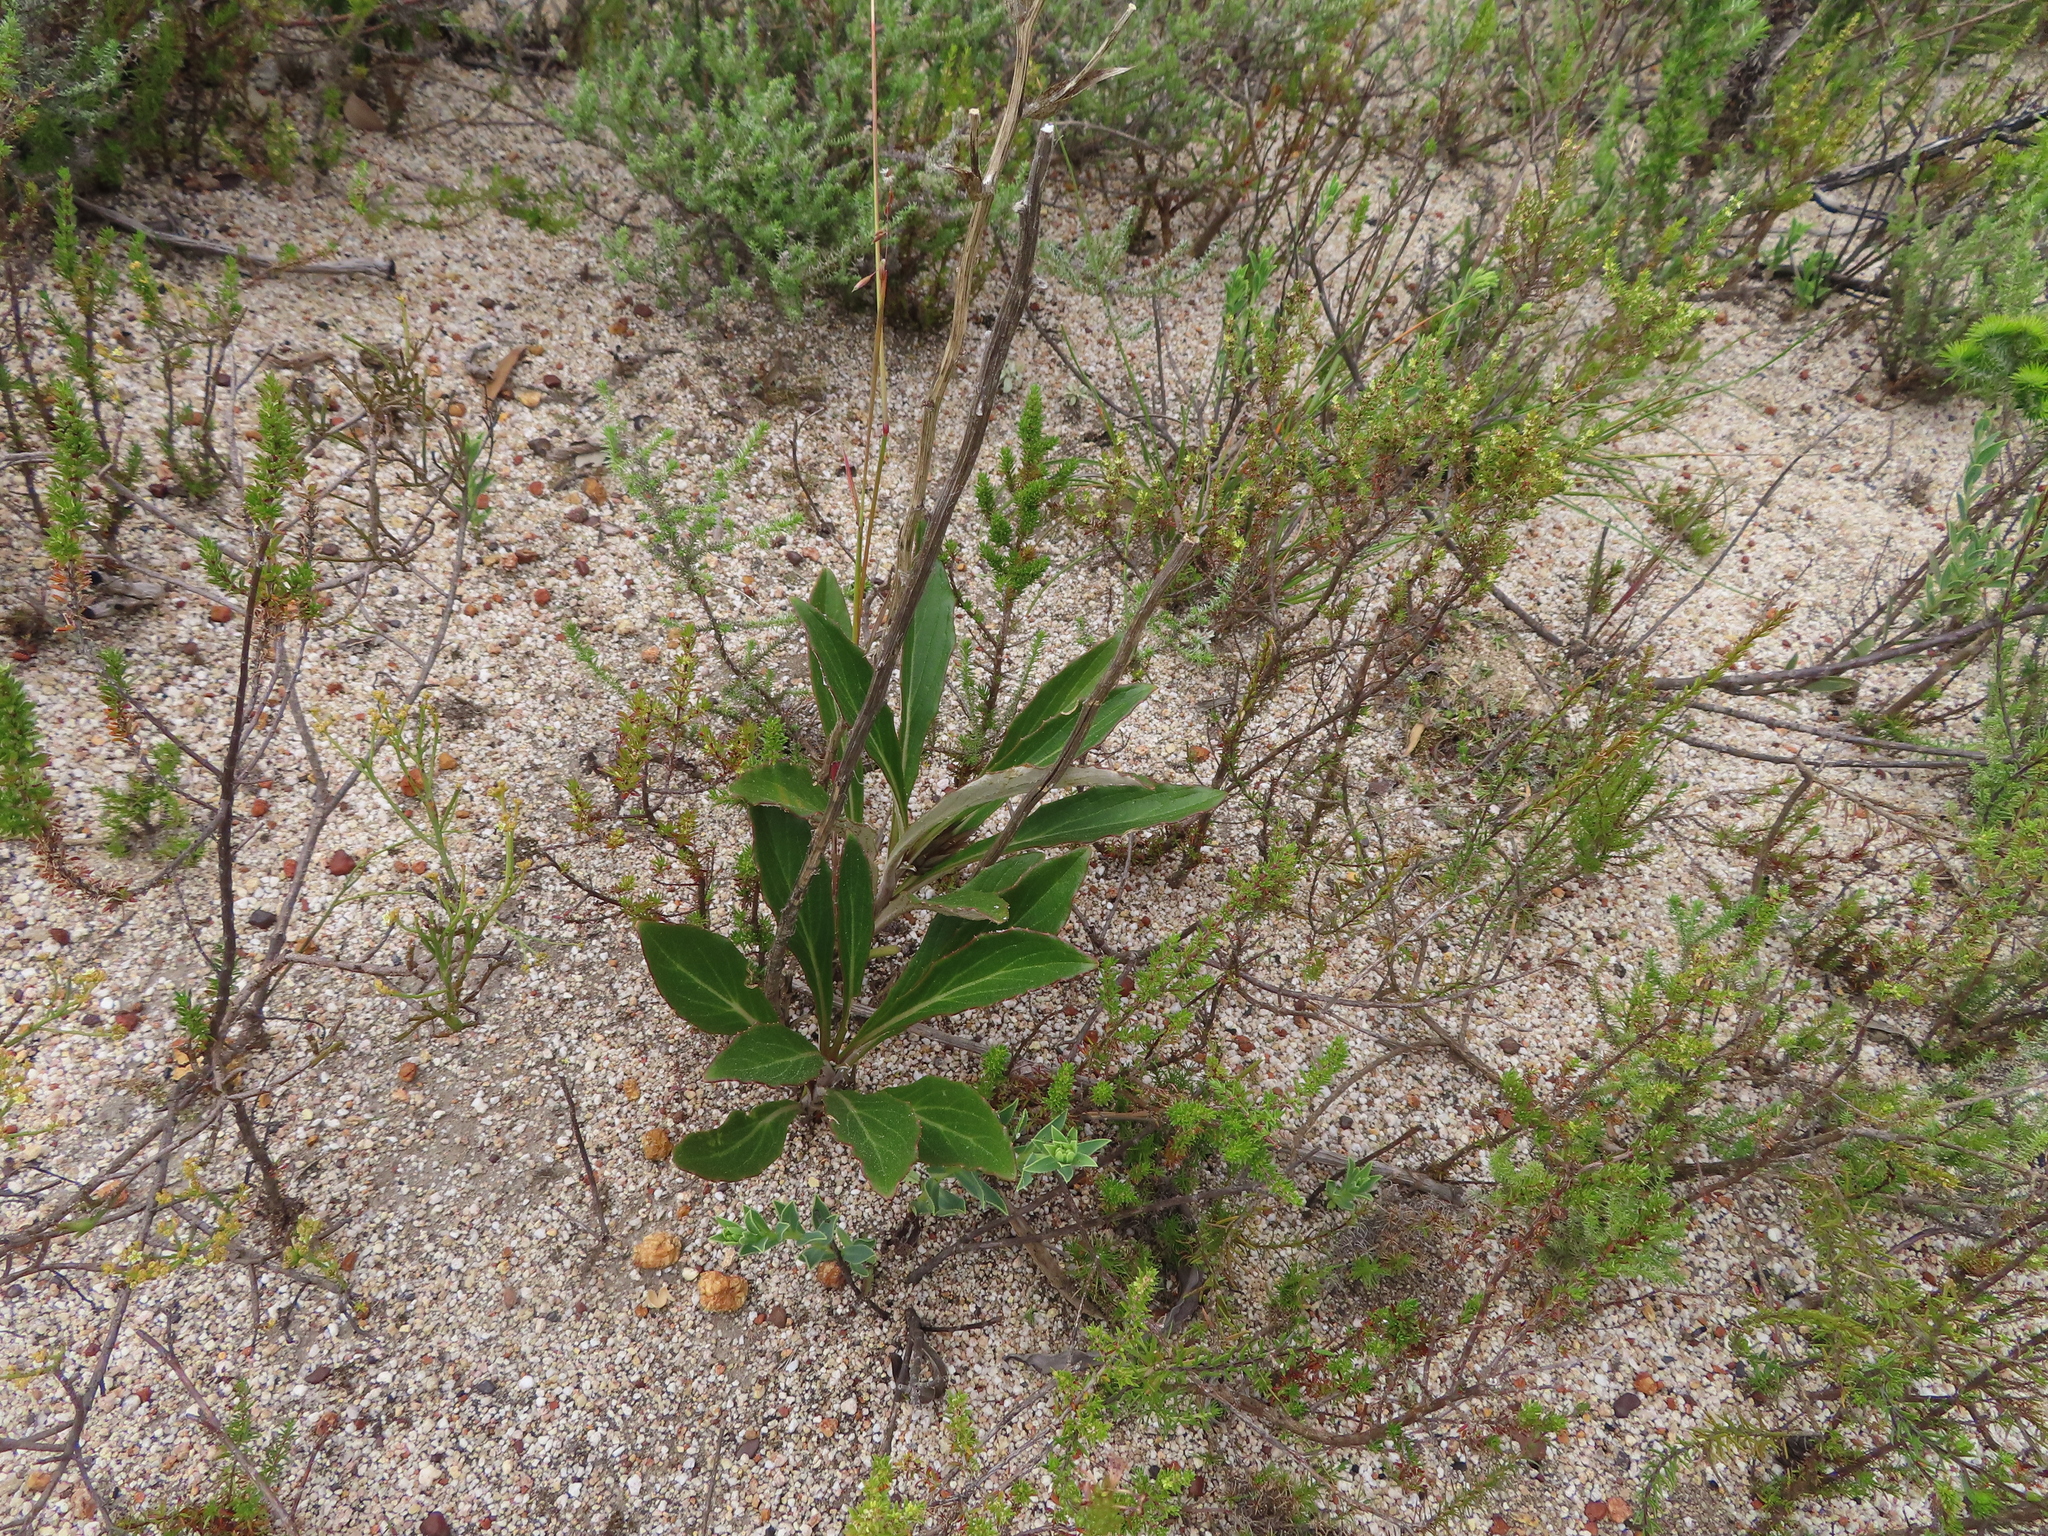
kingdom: Plantae
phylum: Tracheophyta
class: Magnoliopsida
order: Asterales
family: Asteraceae
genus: Berkheya
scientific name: Berkheya herbacea
